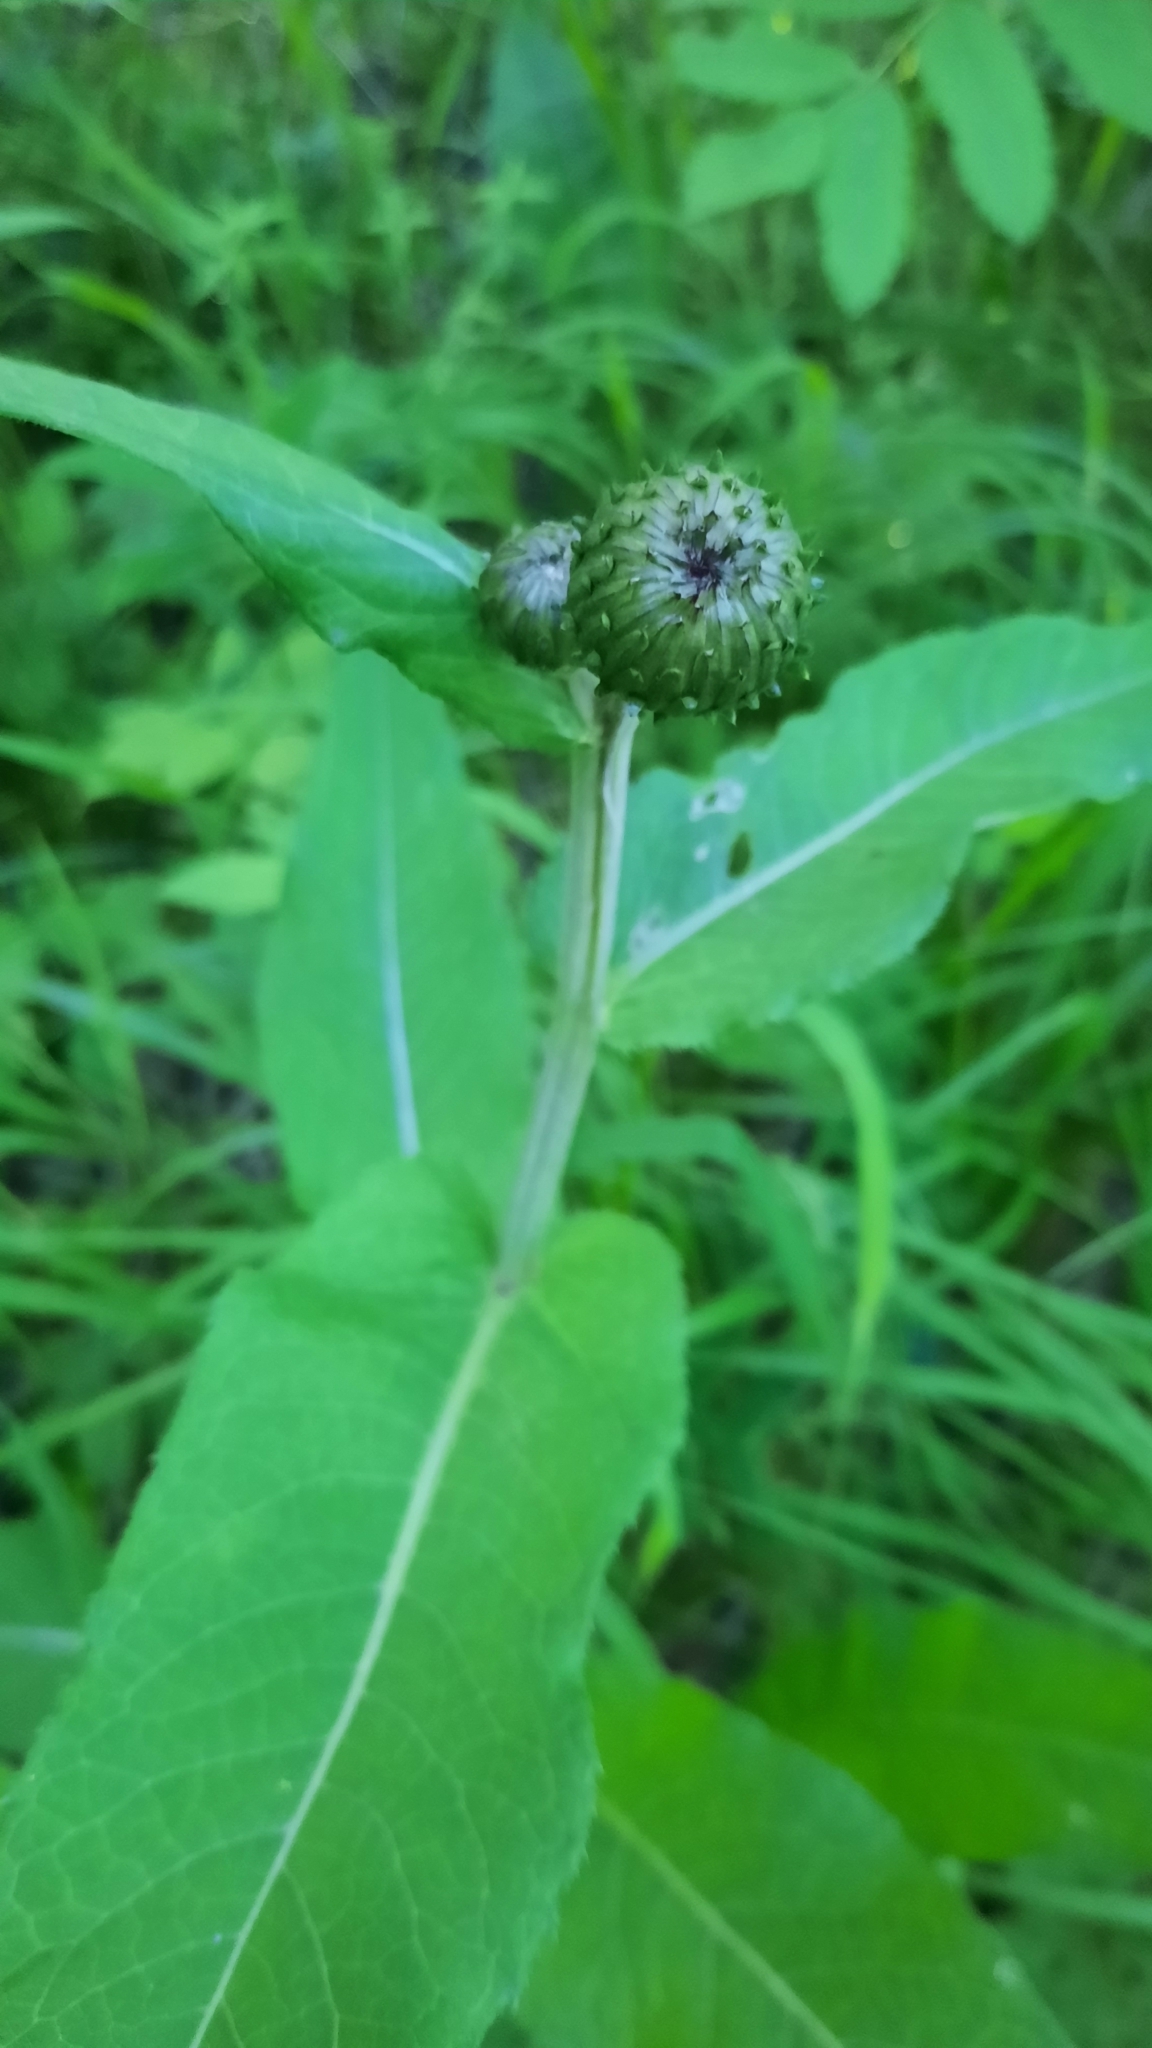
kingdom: Plantae
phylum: Tracheophyta
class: Magnoliopsida
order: Asterales
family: Asteraceae
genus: Cirsium
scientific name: Cirsium heterophyllum
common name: Melancholy thistle
